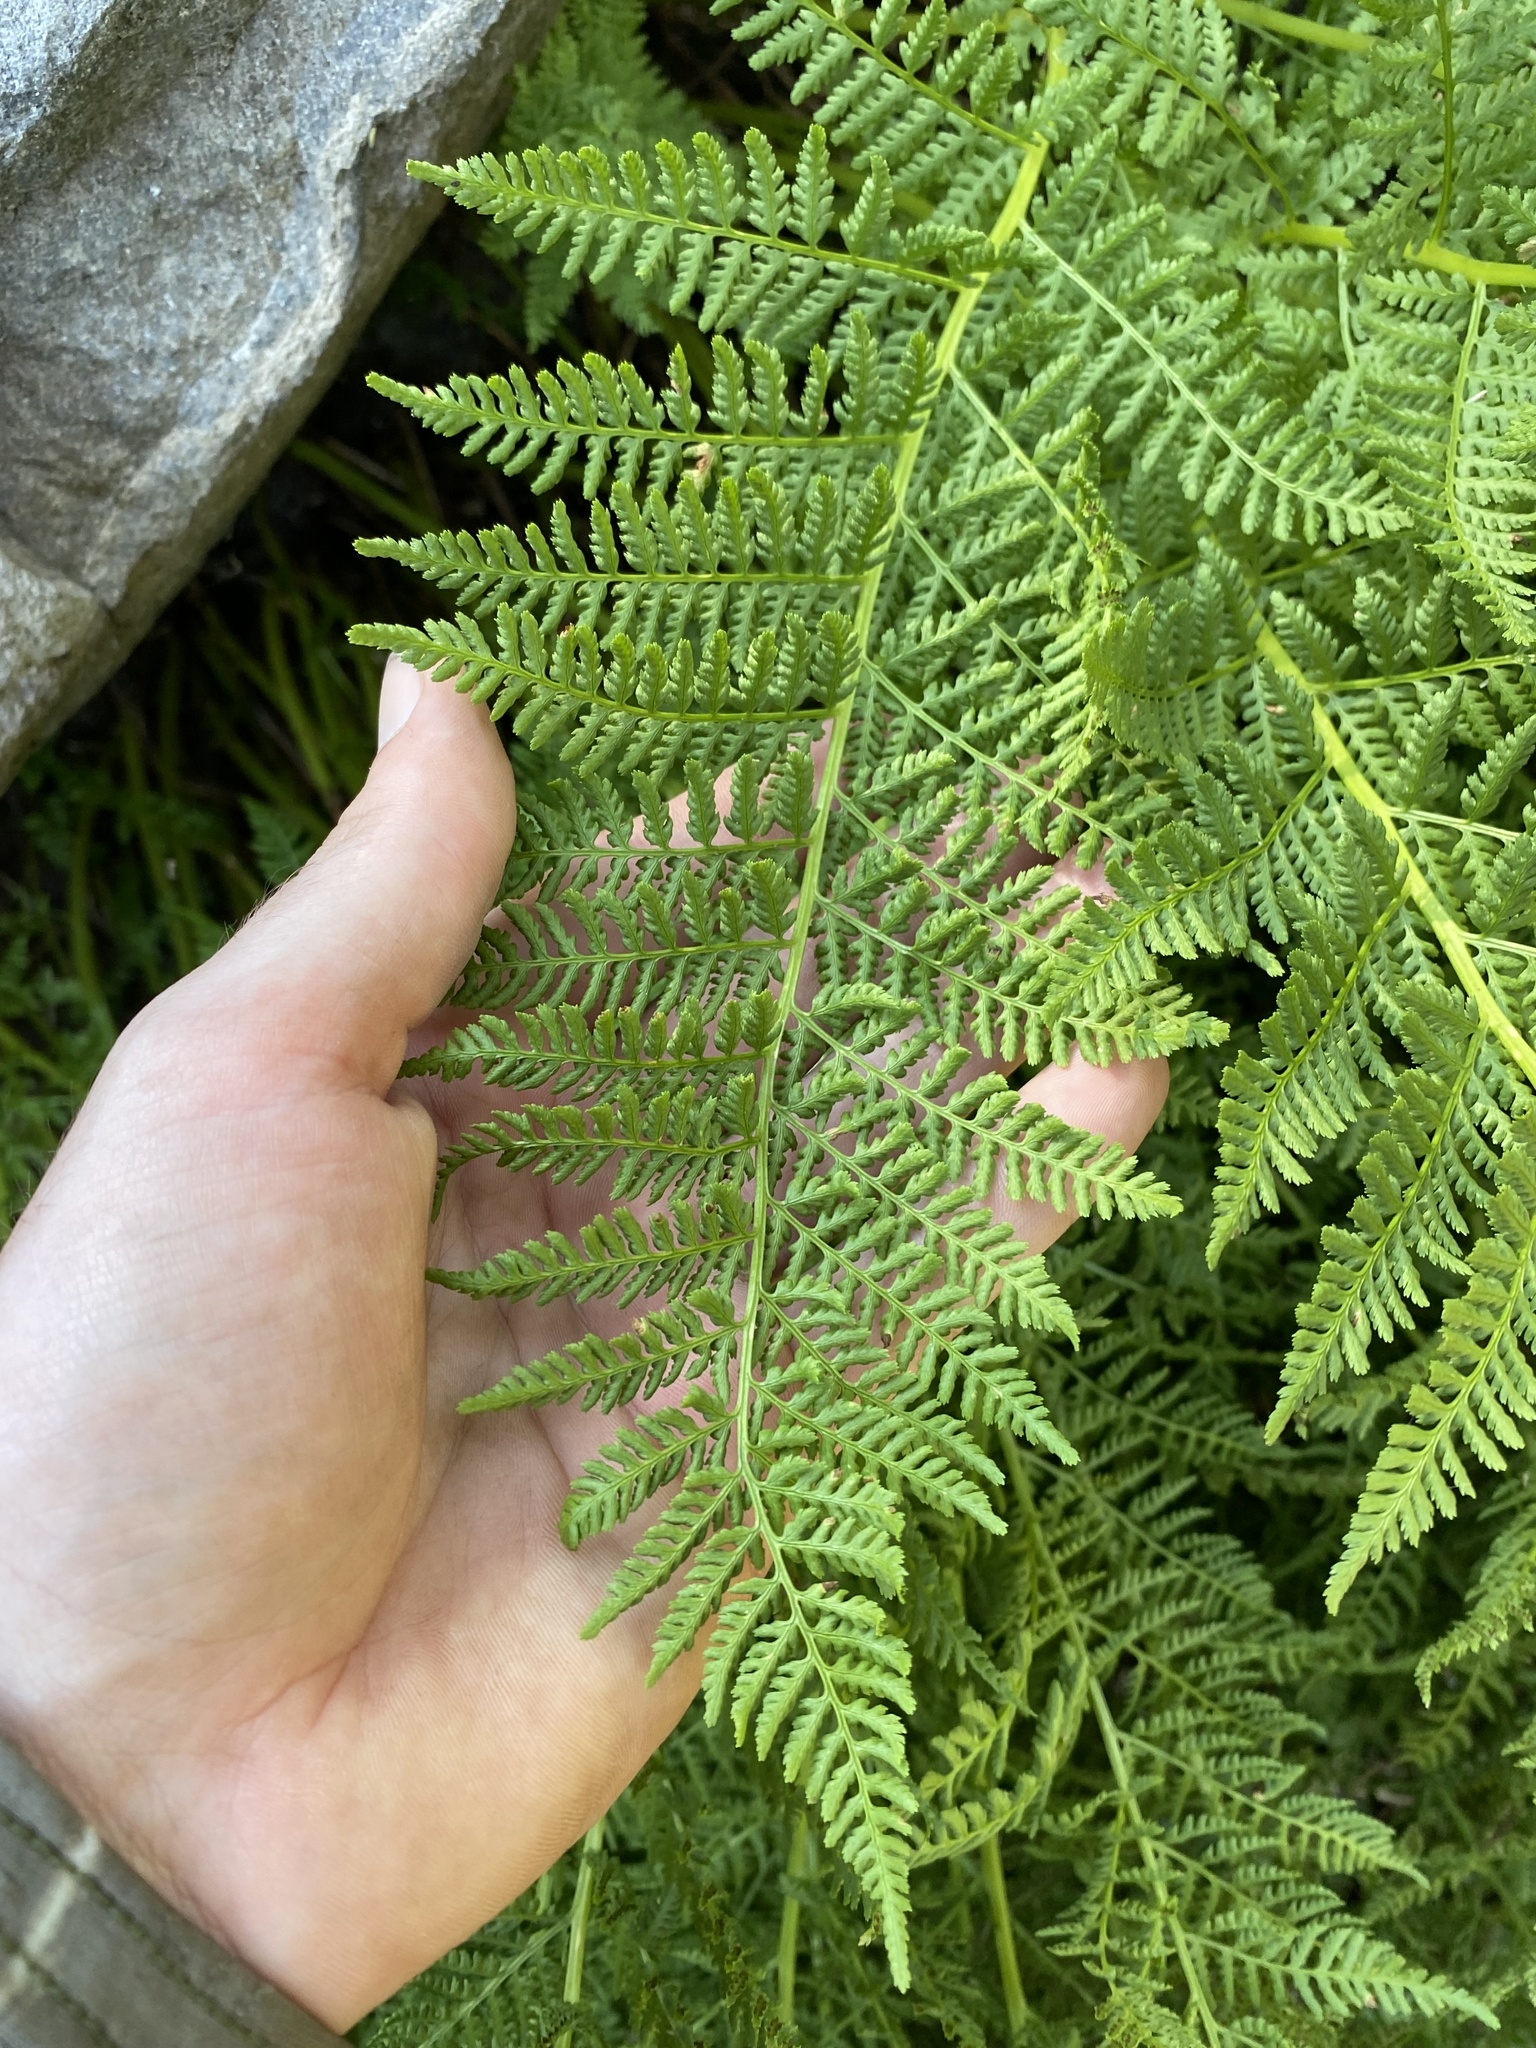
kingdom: Plantae
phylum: Tracheophyta
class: Polypodiopsida
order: Polypodiales
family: Athyriaceae
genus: Athyrium
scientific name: Athyrium americanum
